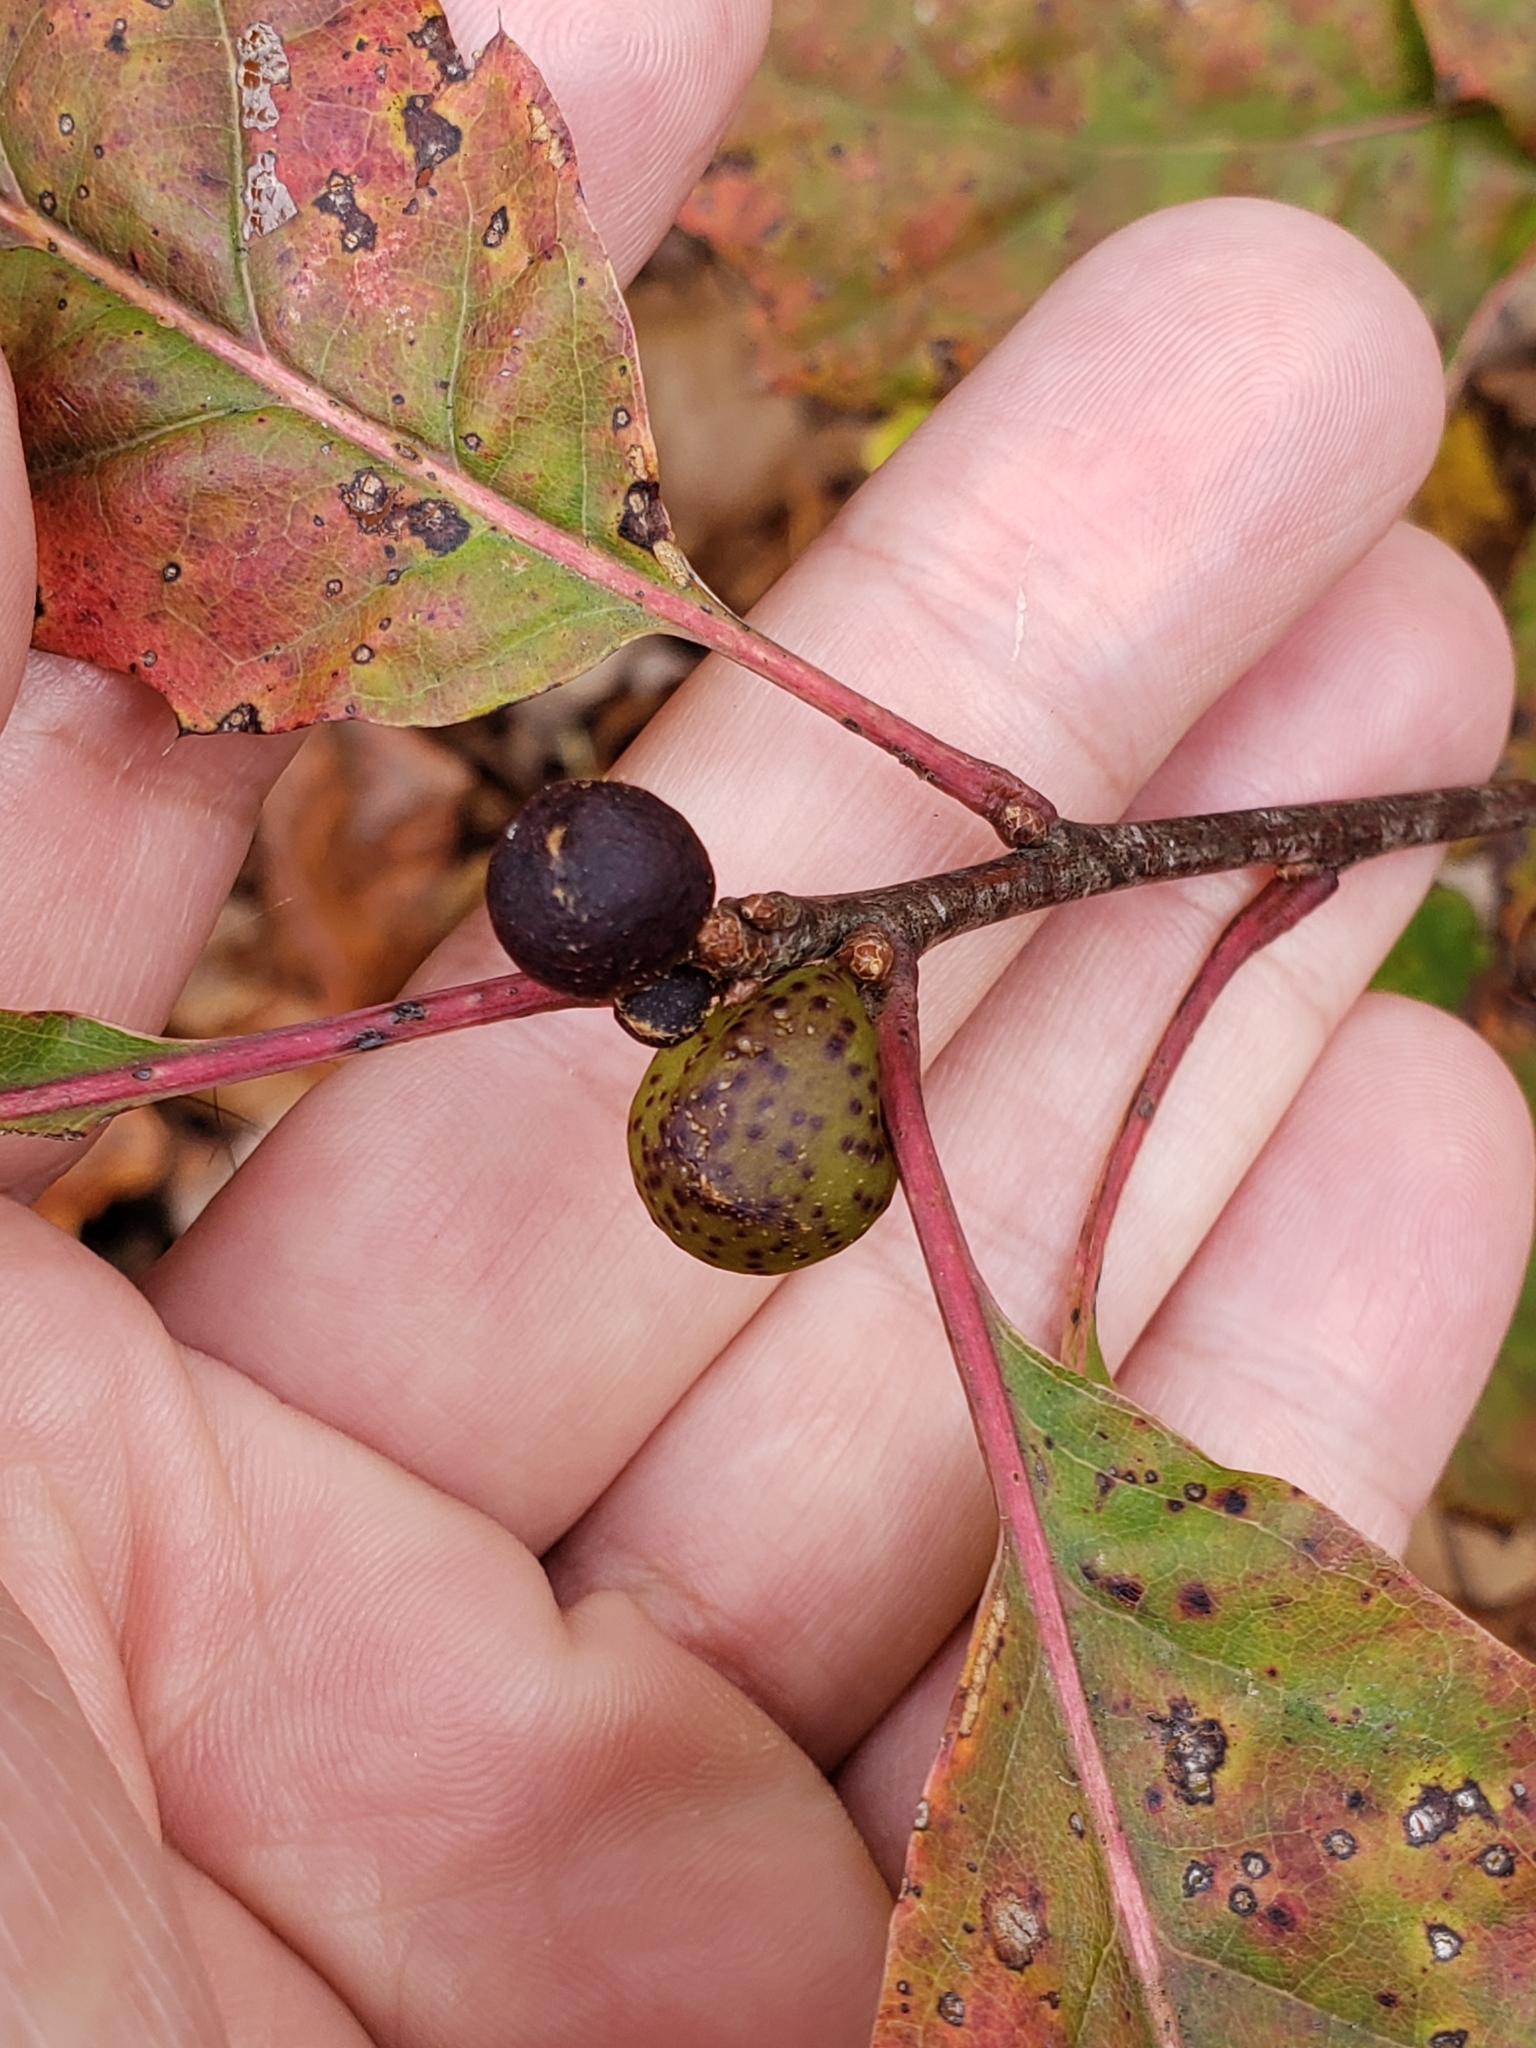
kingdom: Animalia
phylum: Arthropoda
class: Insecta
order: Hymenoptera
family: Cynipidae
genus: Amphibolips
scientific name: Amphibolips
